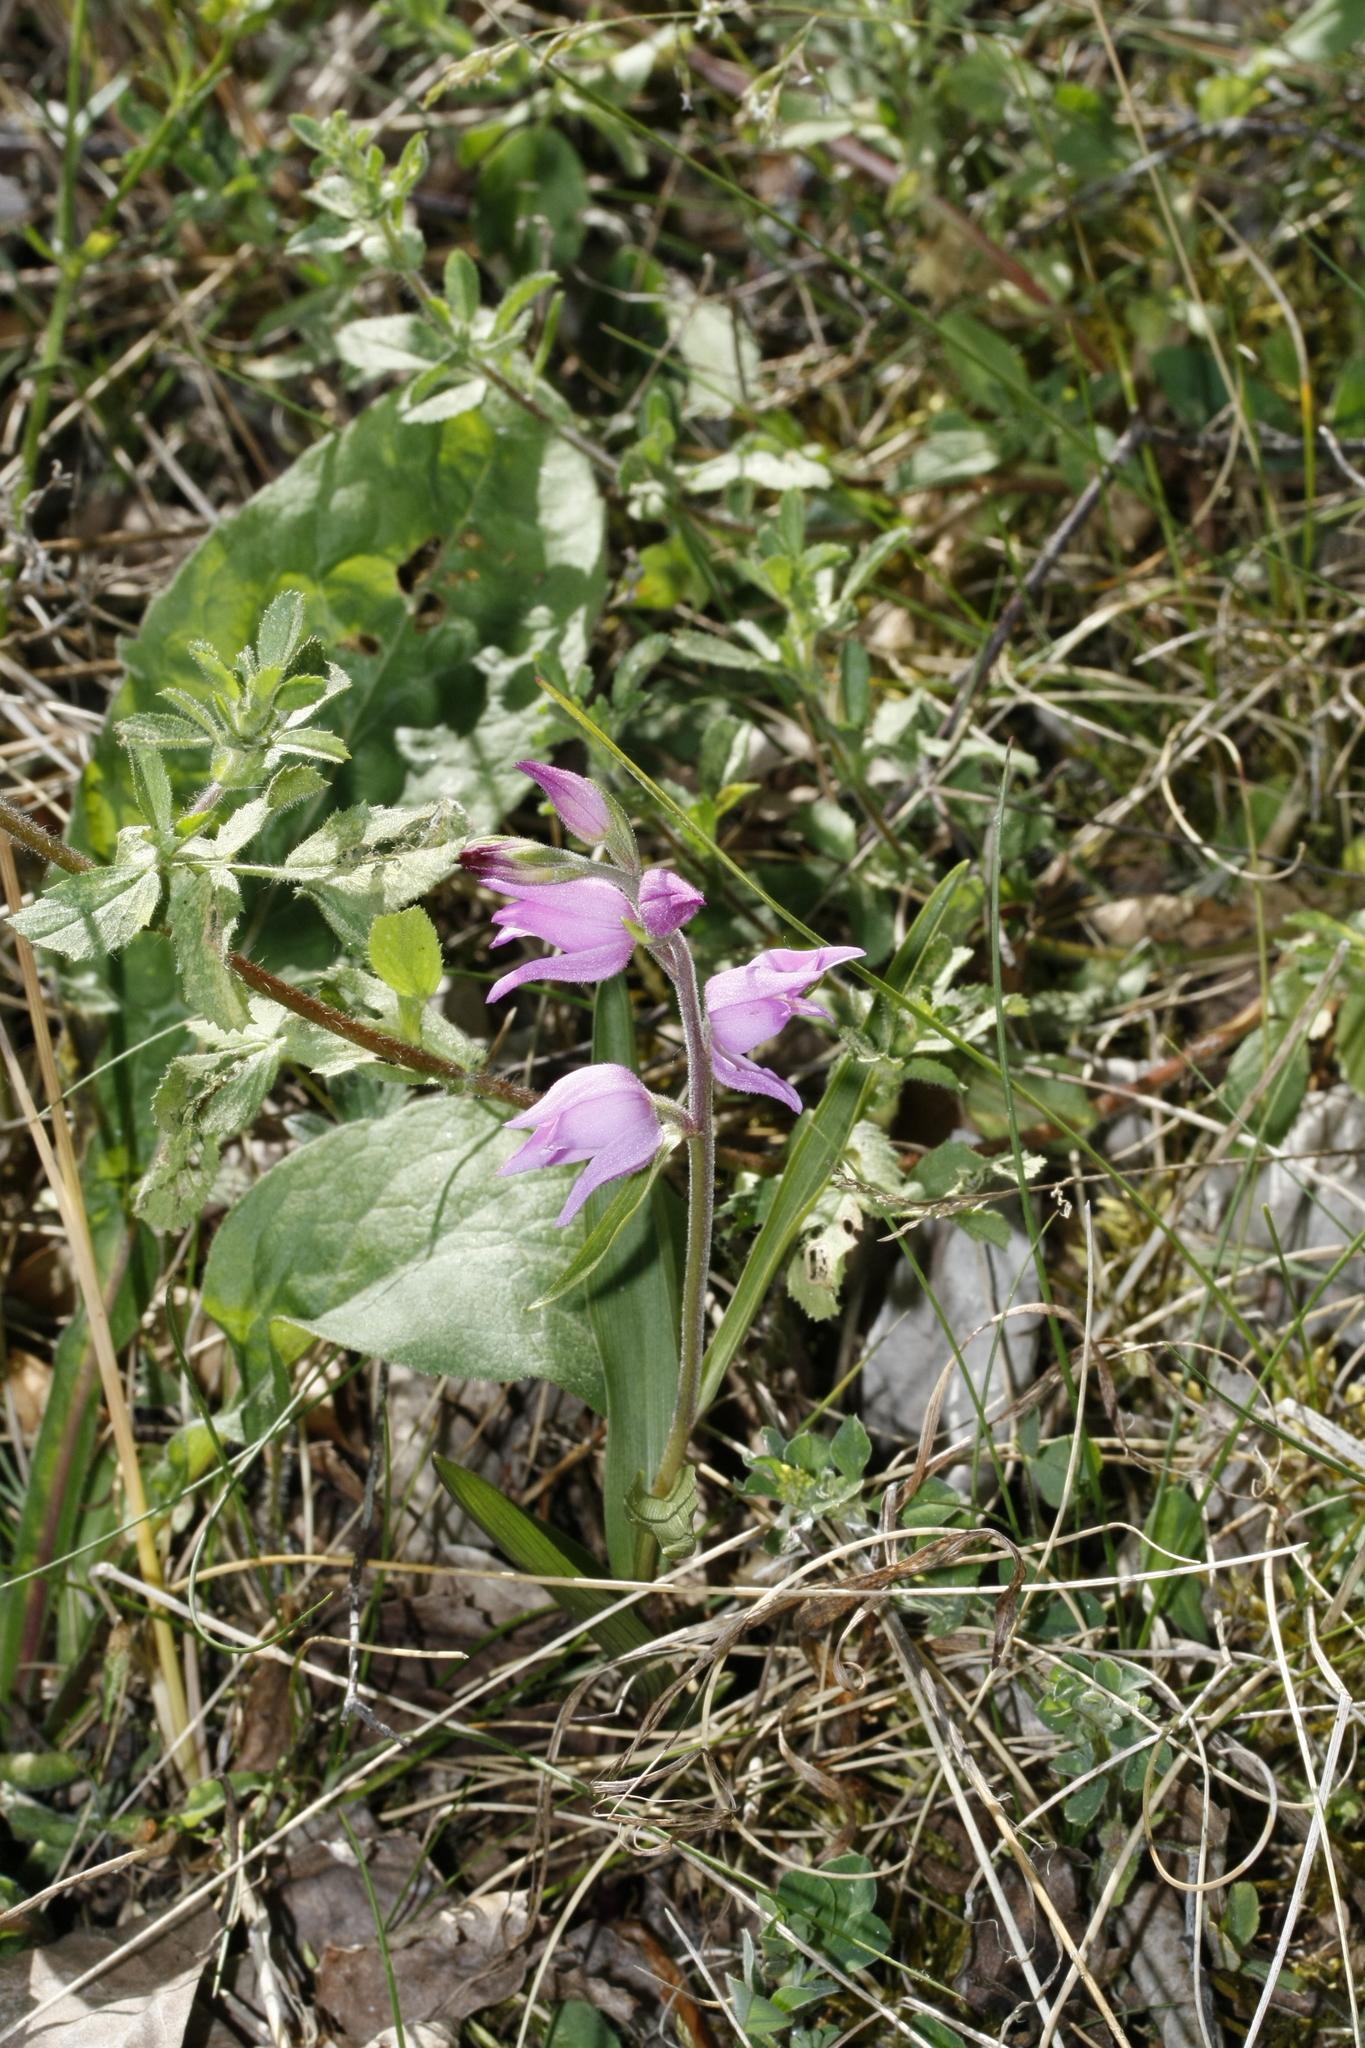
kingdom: Plantae
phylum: Tracheophyta
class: Liliopsida
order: Asparagales
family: Orchidaceae
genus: Cephalanthera
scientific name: Cephalanthera rubra
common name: Red helleborine
